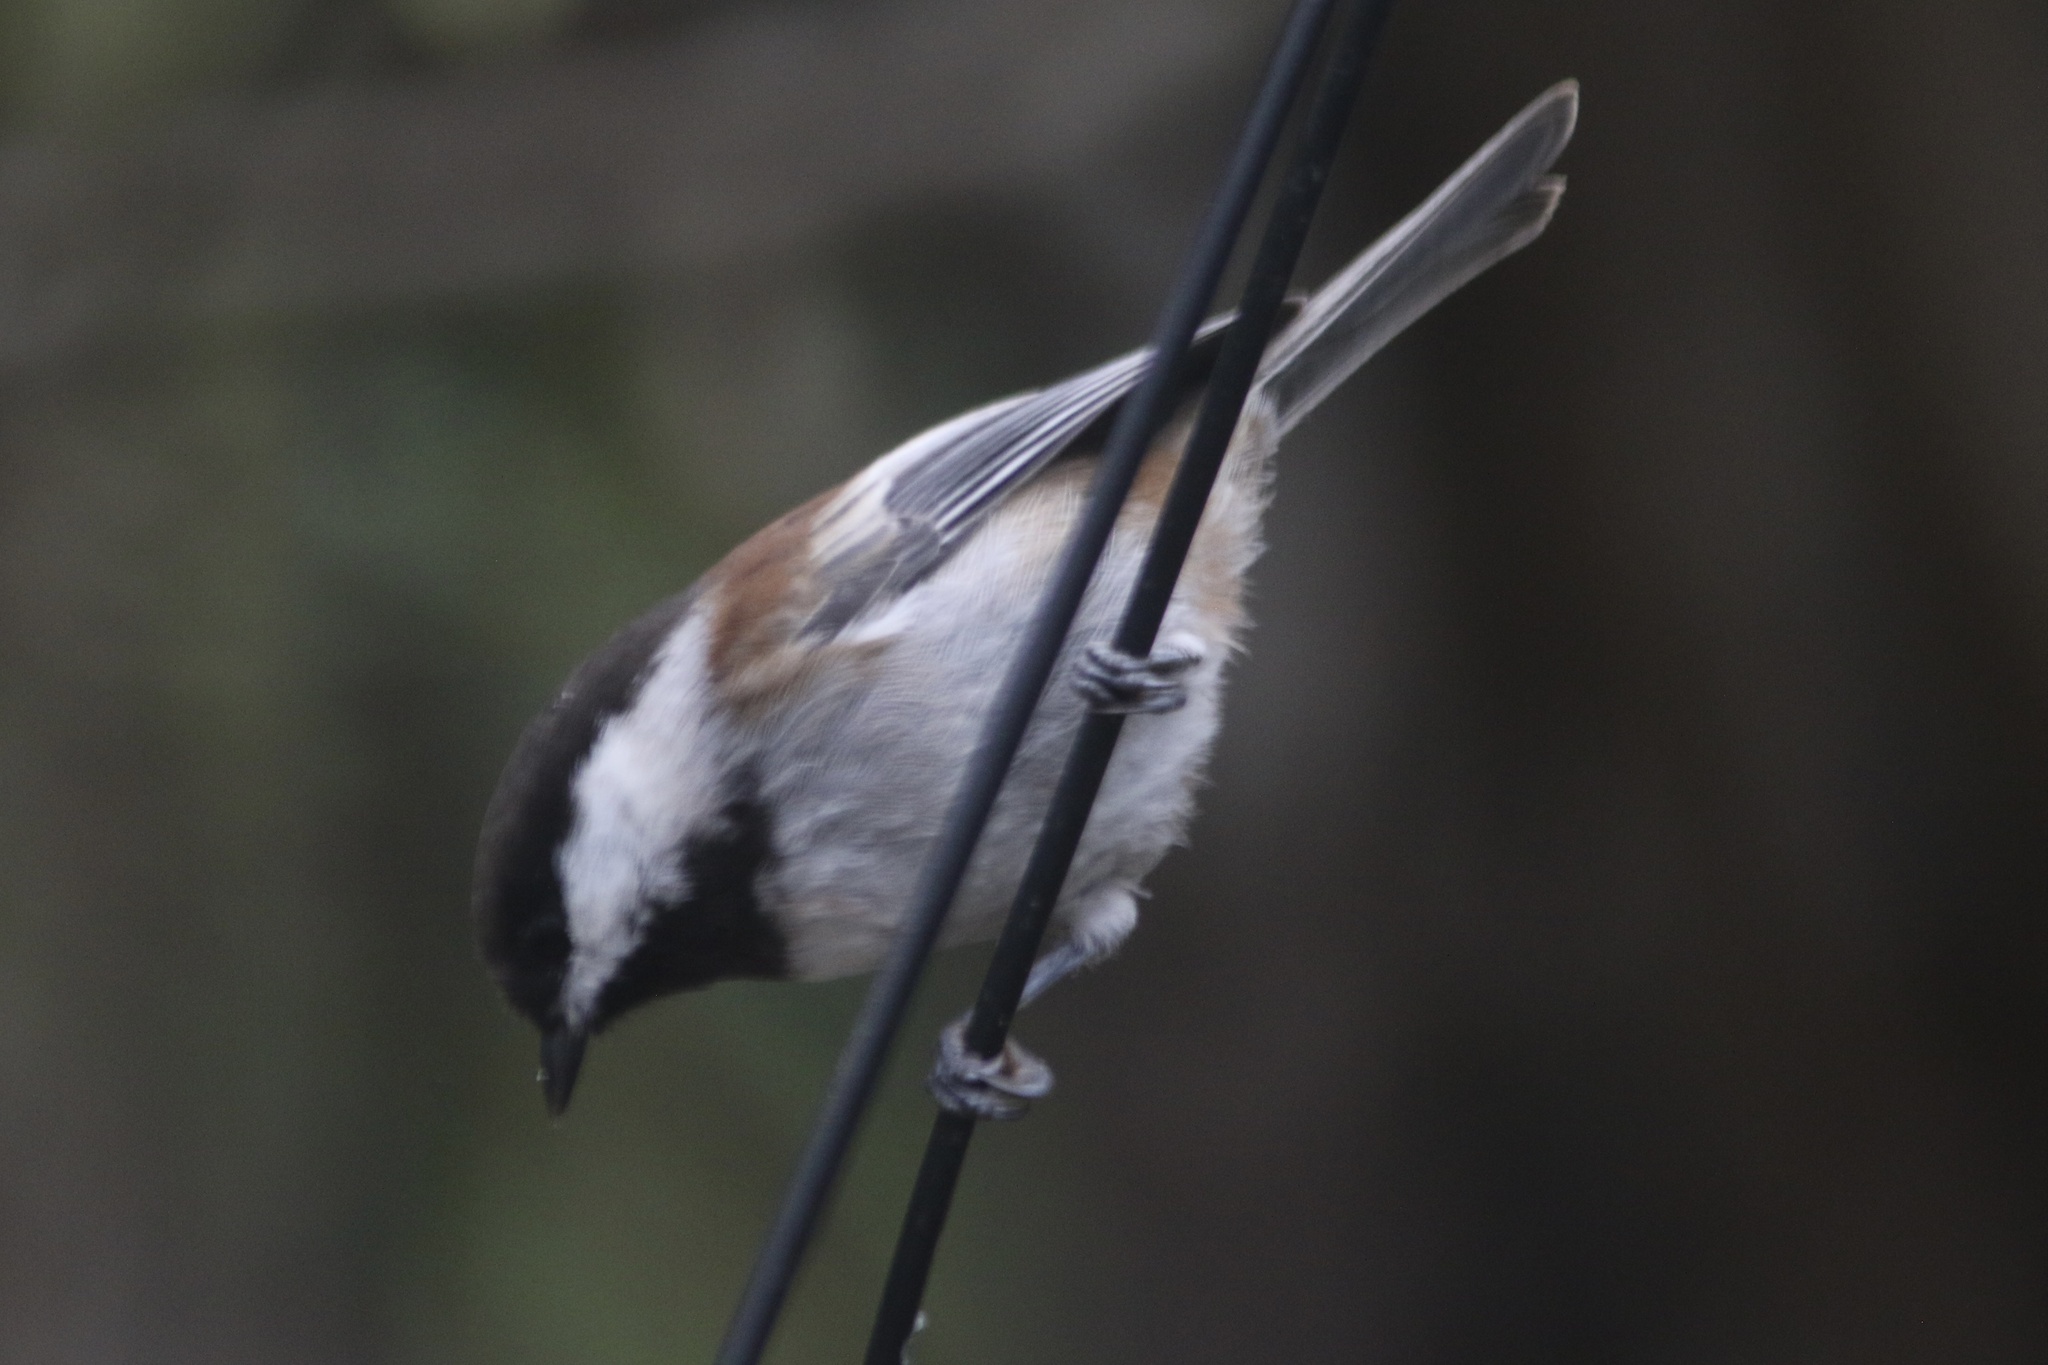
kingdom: Animalia
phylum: Chordata
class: Aves
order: Passeriformes
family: Paridae
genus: Poecile
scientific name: Poecile rufescens
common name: Chestnut-backed chickadee
